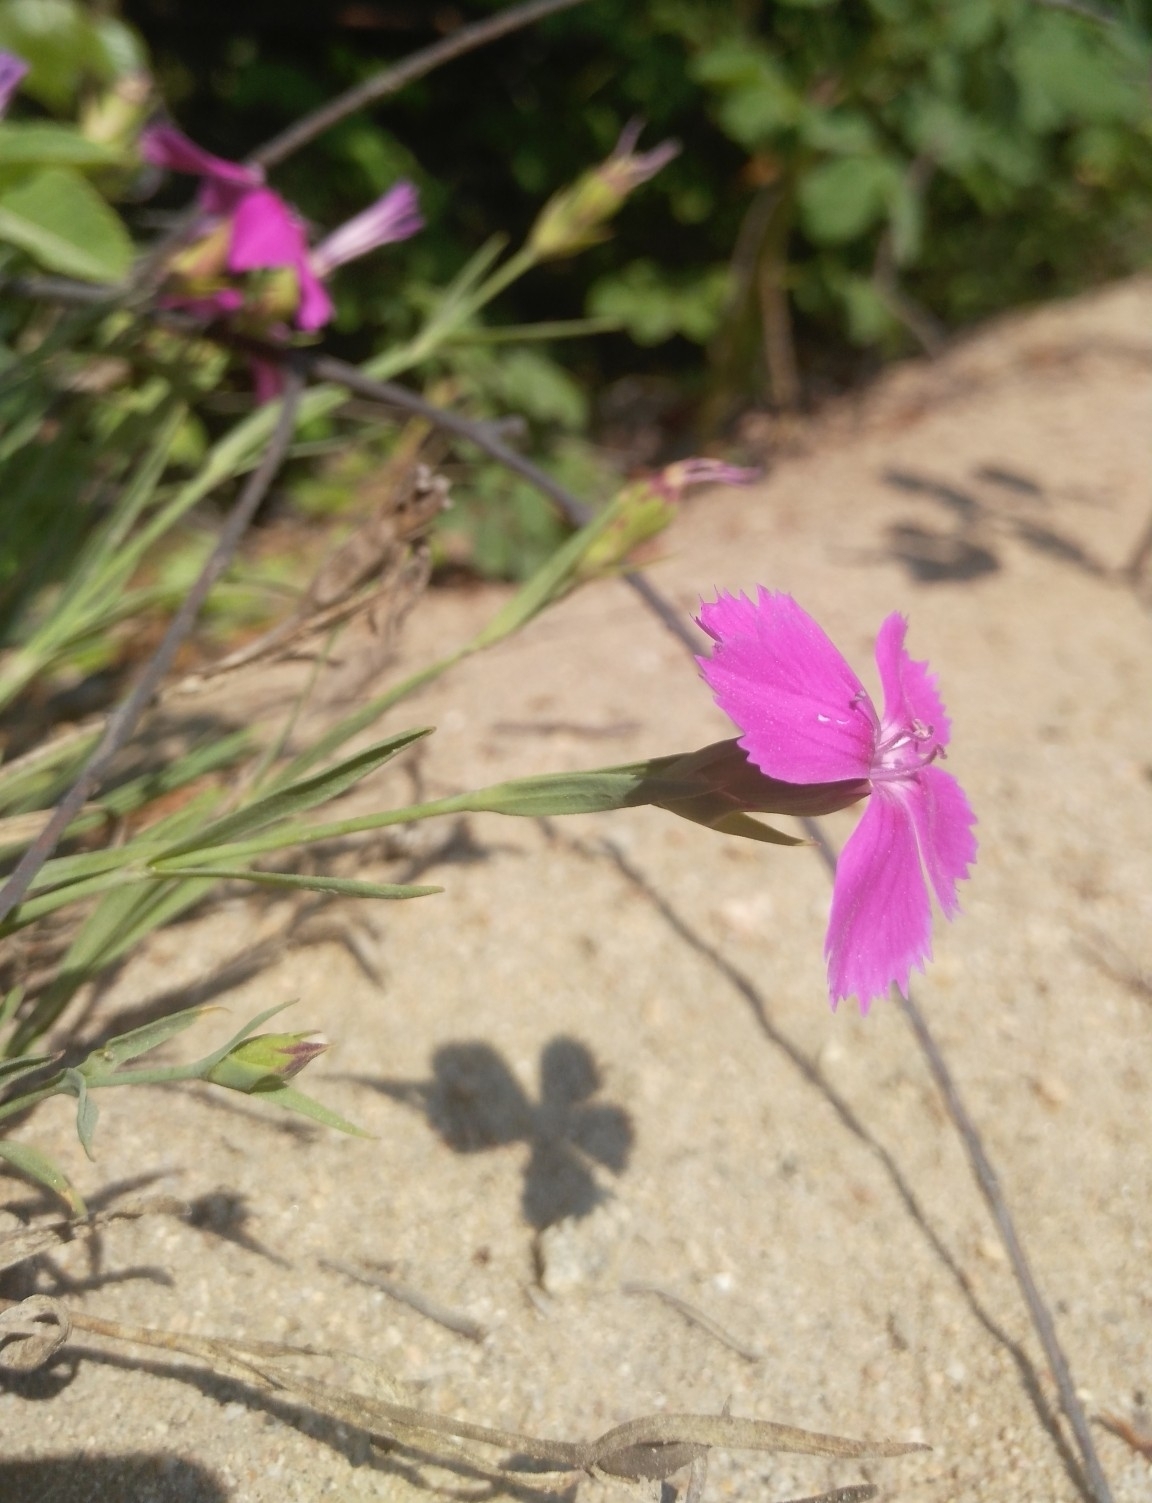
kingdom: Plantae
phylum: Tracheophyta
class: Magnoliopsida
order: Caryophyllales
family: Caryophyllaceae
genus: Dianthus
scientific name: Dianthus chinensis
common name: Rainbow pink
